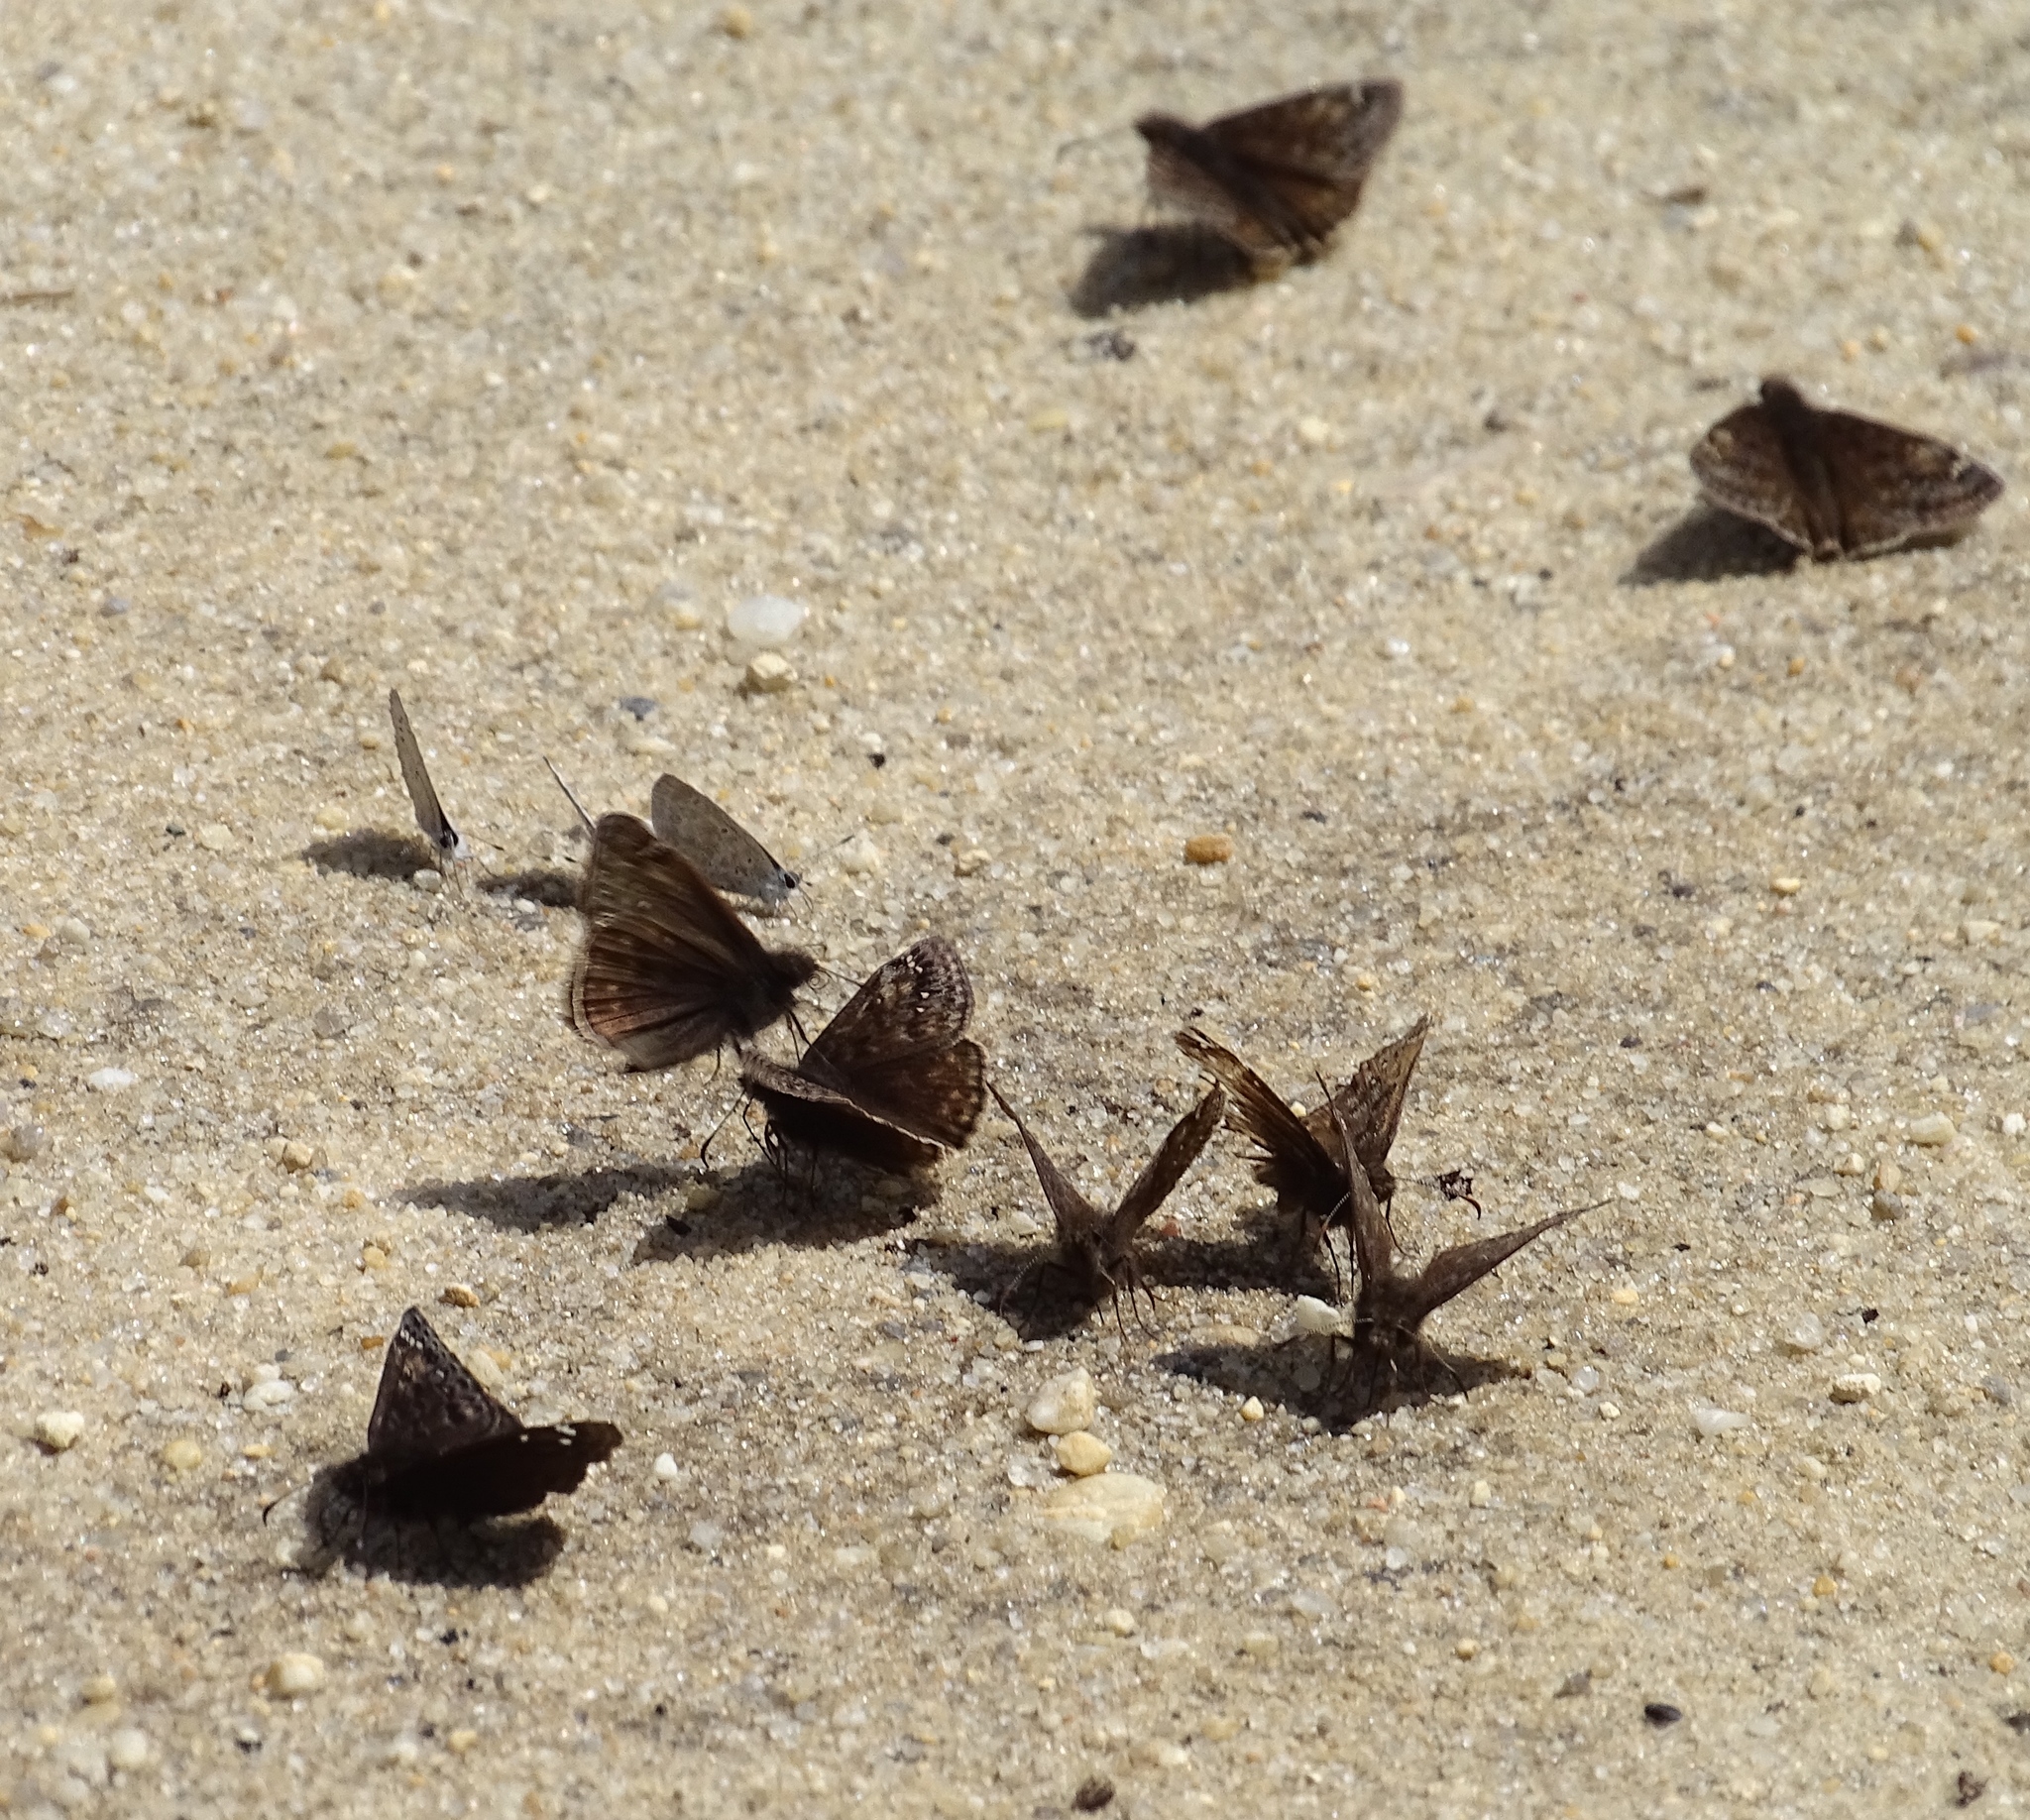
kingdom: Animalia
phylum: Arthropoda
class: Insecta
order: Lepidoptera
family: Hesperiidae
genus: Erynnis
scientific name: Erynnis juvenalis
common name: Juvenal's duskywing
